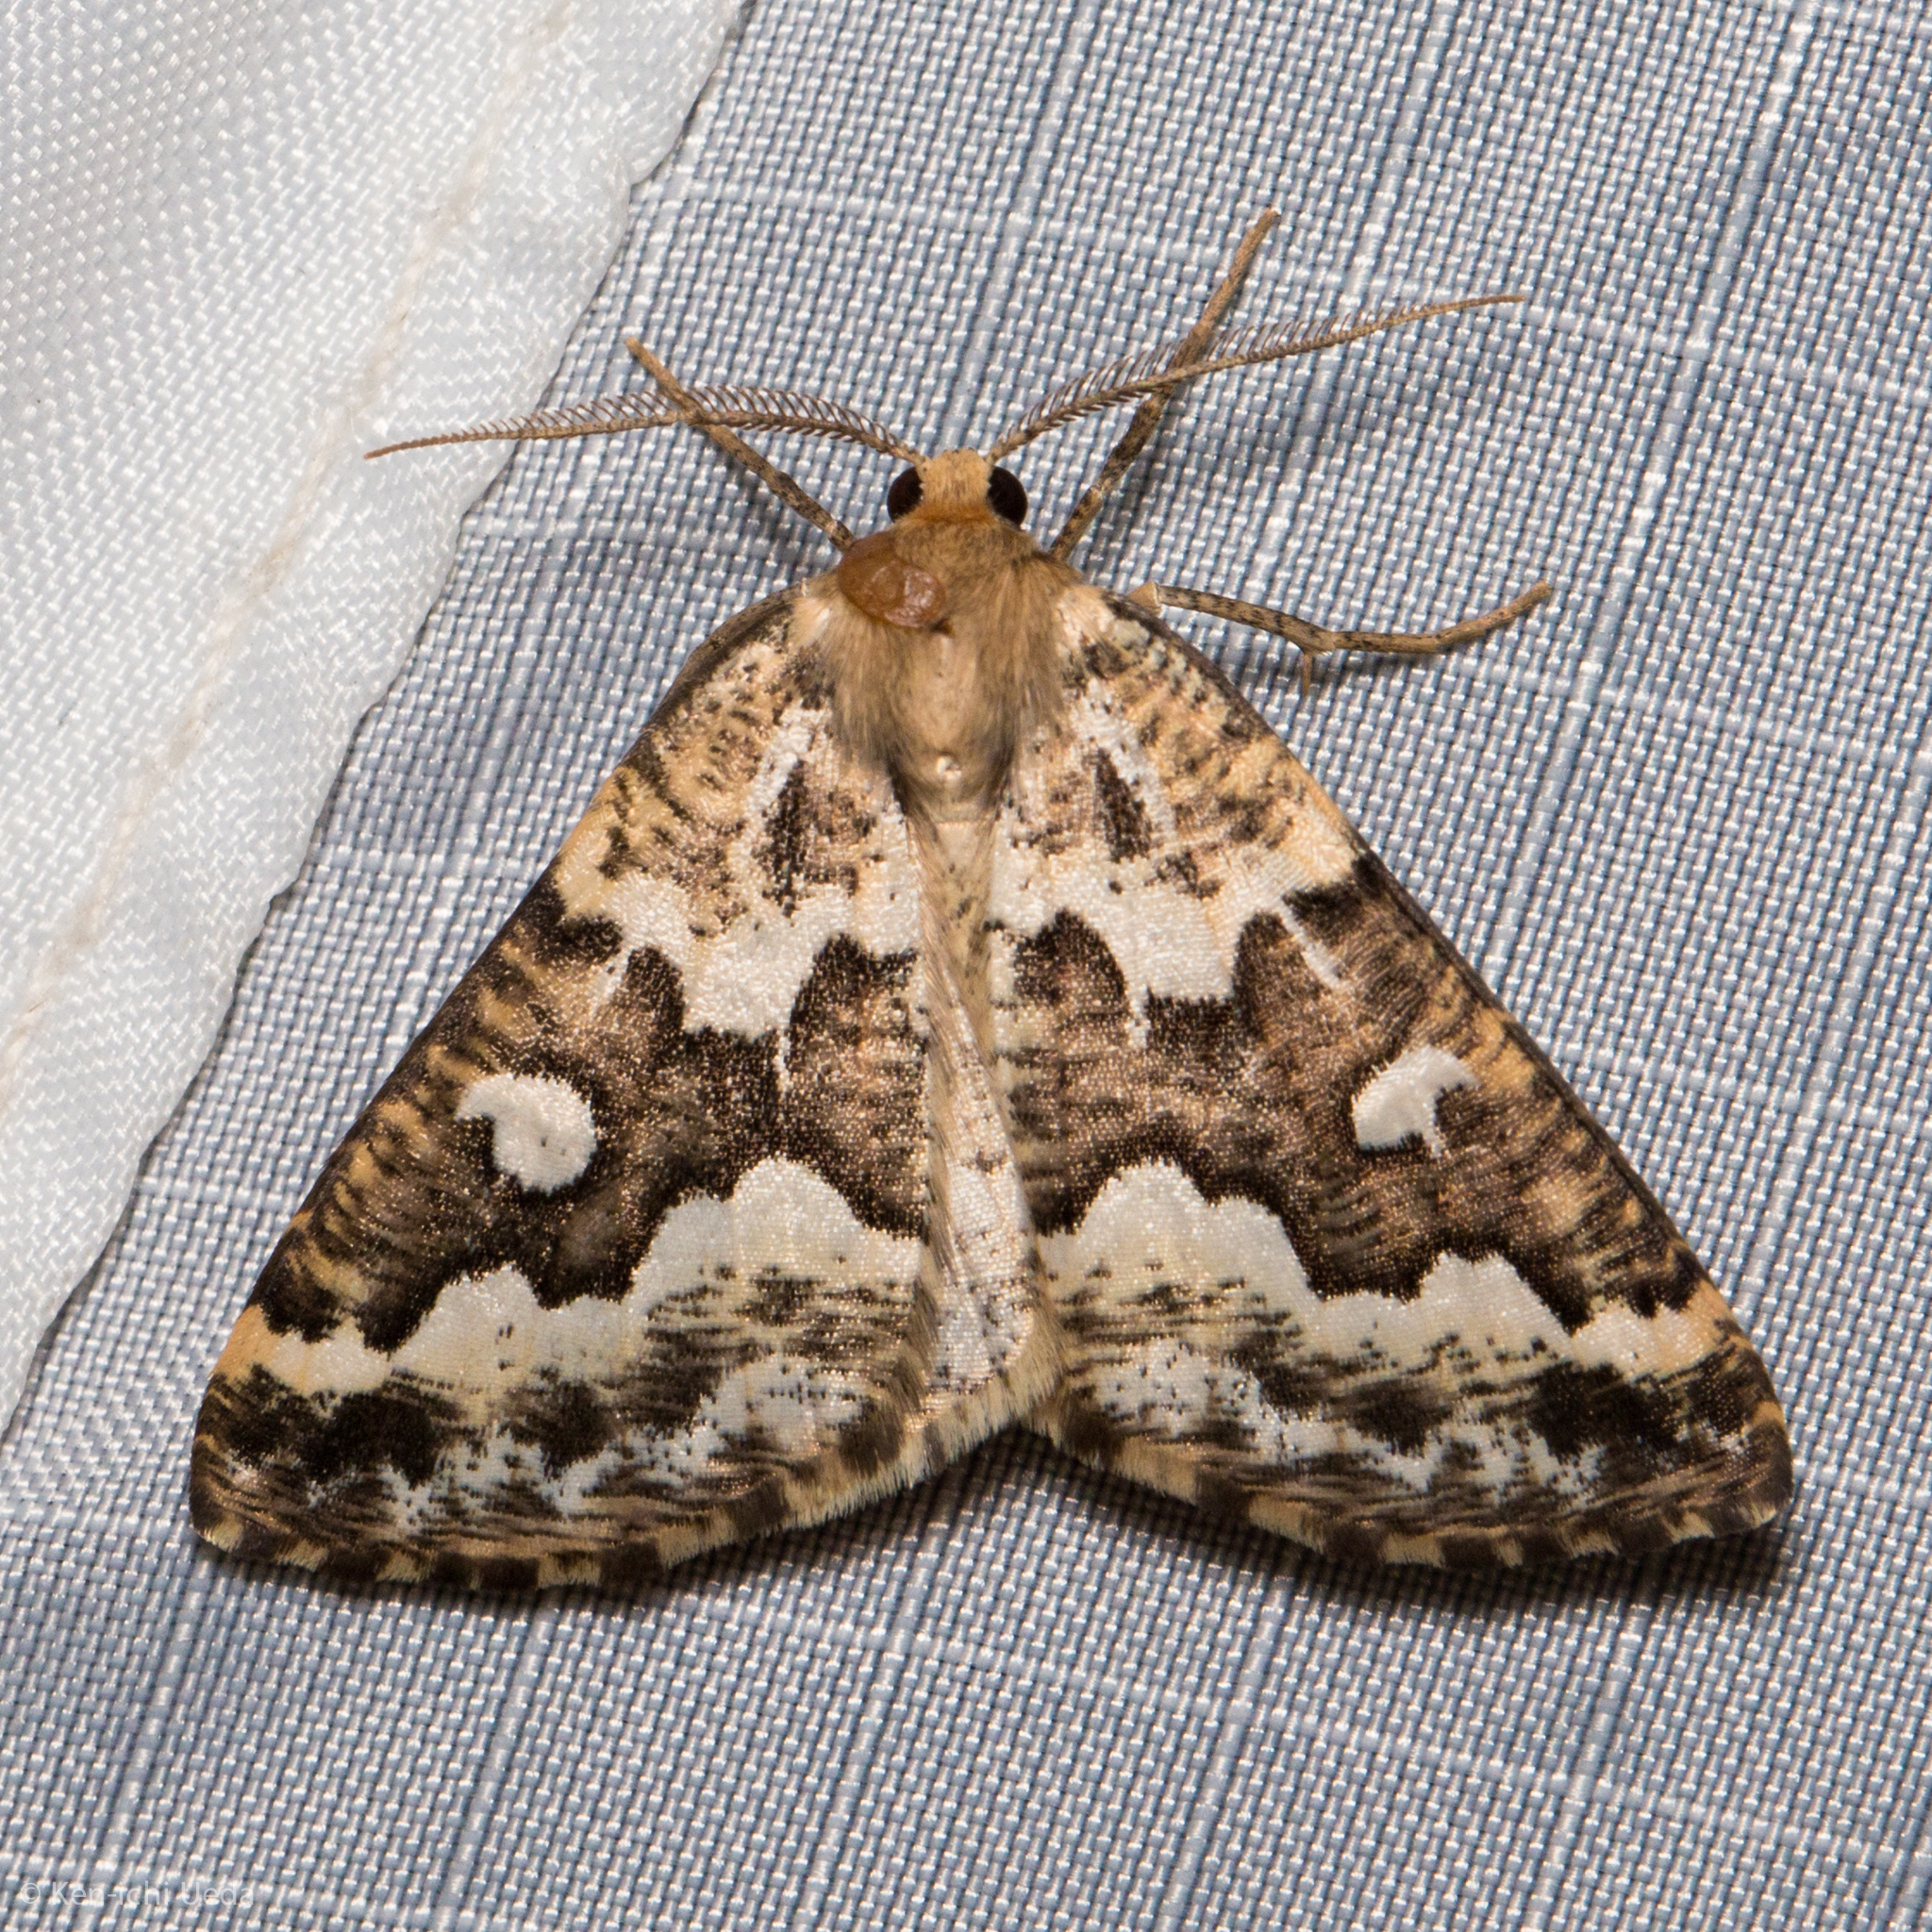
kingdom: Animalia
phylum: Arthropoda
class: Insecta
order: Lepidoptera
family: Geometridae
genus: Caripeta
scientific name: Caripeta divisata
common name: Gray spruce looper
